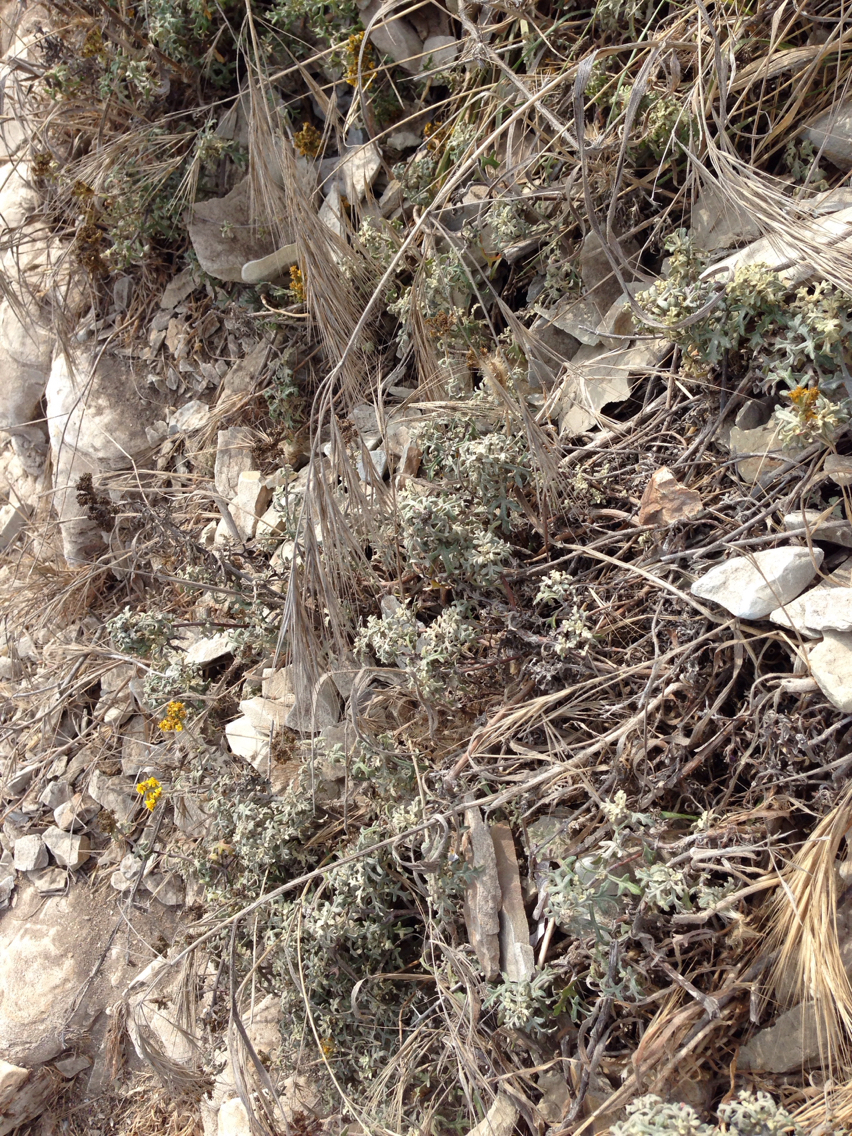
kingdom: Plantae
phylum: Tracheophyta
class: Liliopsida
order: Poales
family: Poaceae
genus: Bromus
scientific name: Bromus diandrus
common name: Ripgut brome
